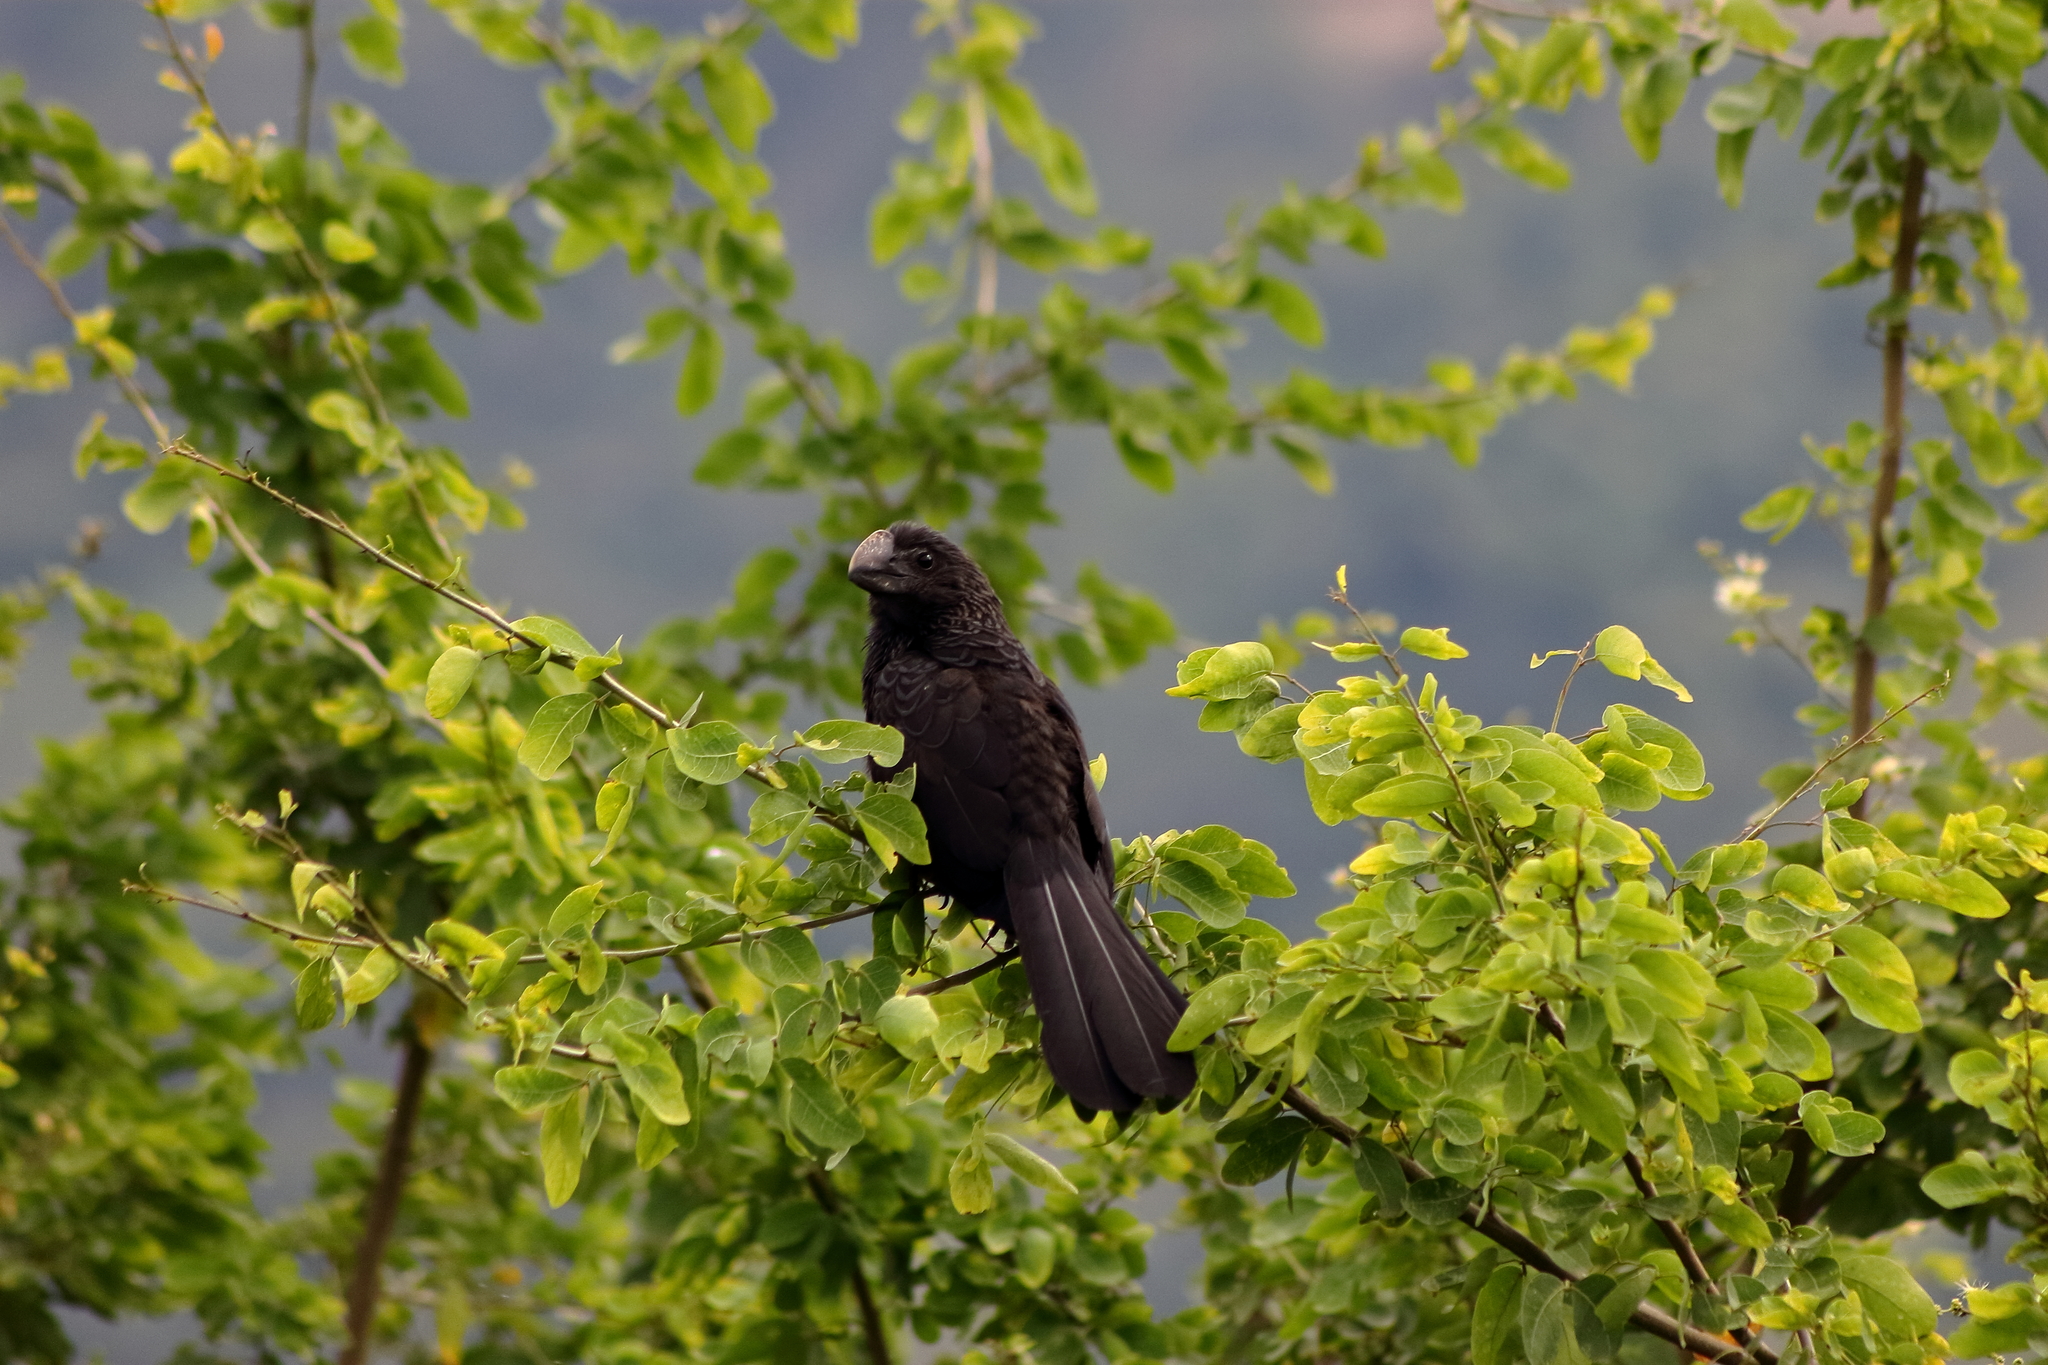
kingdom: Animalia
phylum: Chordata
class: Aves
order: Cuculiformes
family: Cuculidae
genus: Crotophaga
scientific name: Crotophaga ani
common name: Smooth-billed ani
